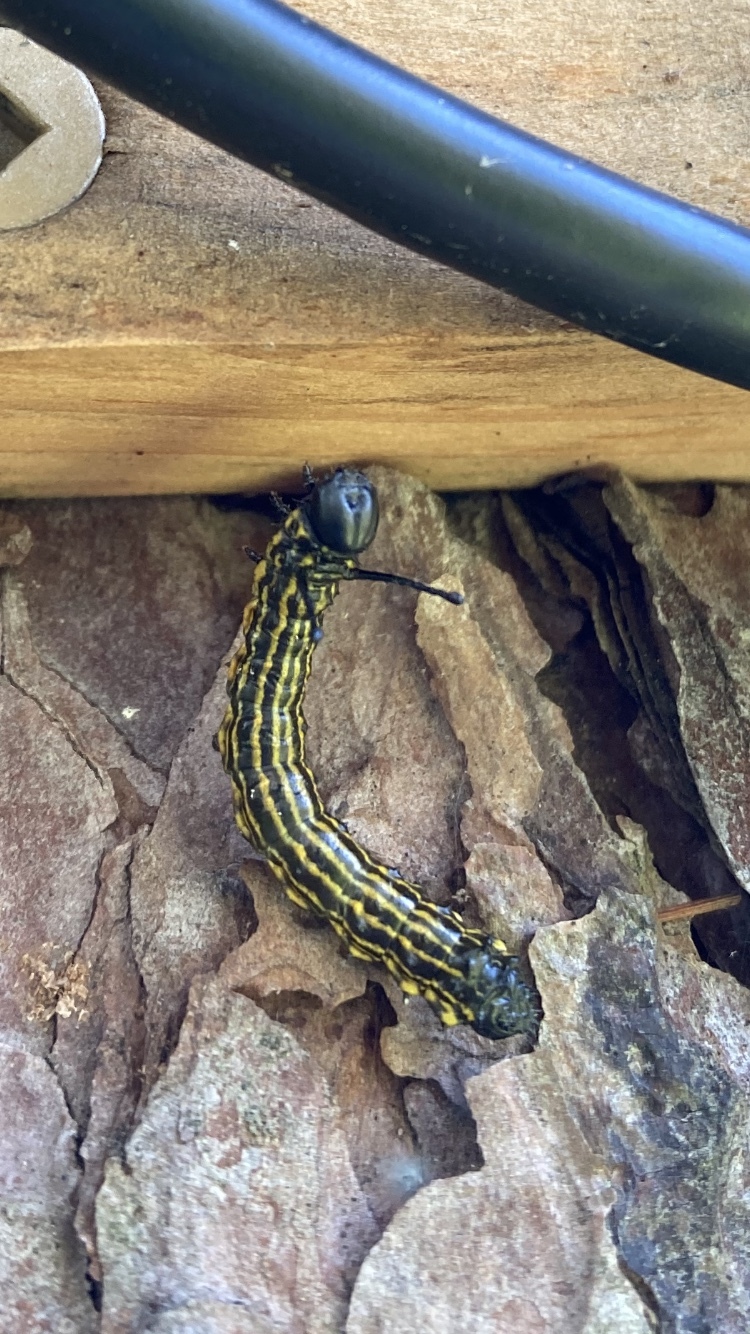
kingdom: Animalia
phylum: Arthropoda
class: Insecta
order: Lepidoptera
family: Saturniidae
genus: Anisota
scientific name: Anisota senatoria
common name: Orange-striped oakworm moth
